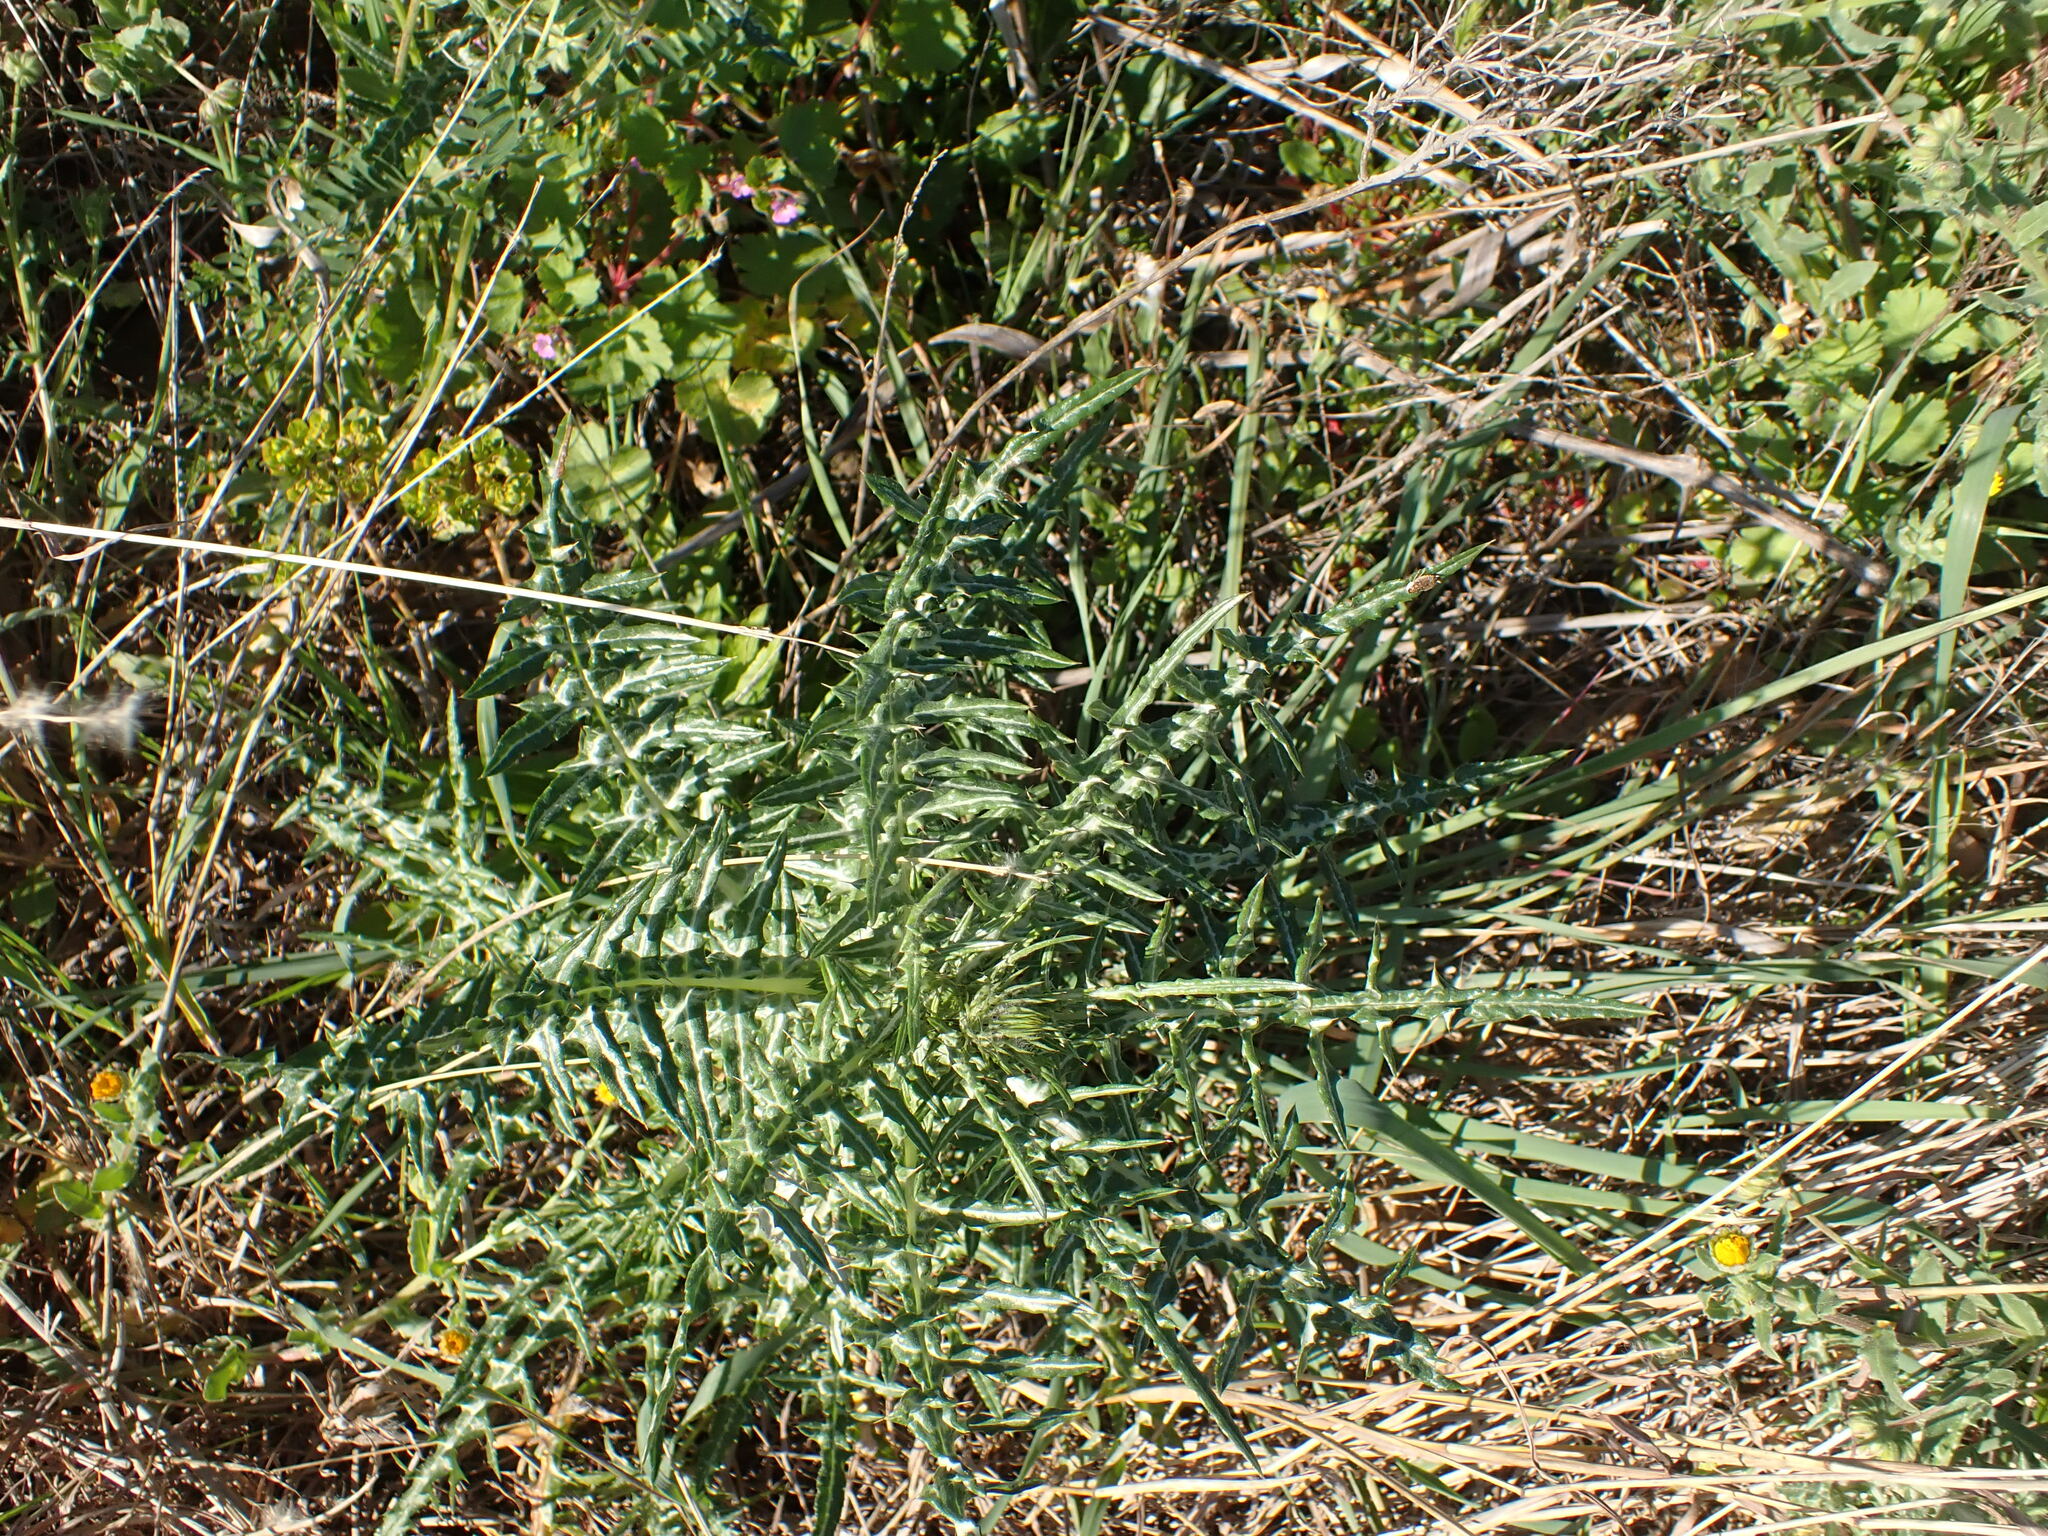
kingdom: Plantae
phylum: Tracheophyta
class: Magnoliopsida
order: Asterales
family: Asteraceae
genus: Galactites
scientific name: Galactites tomentosa
